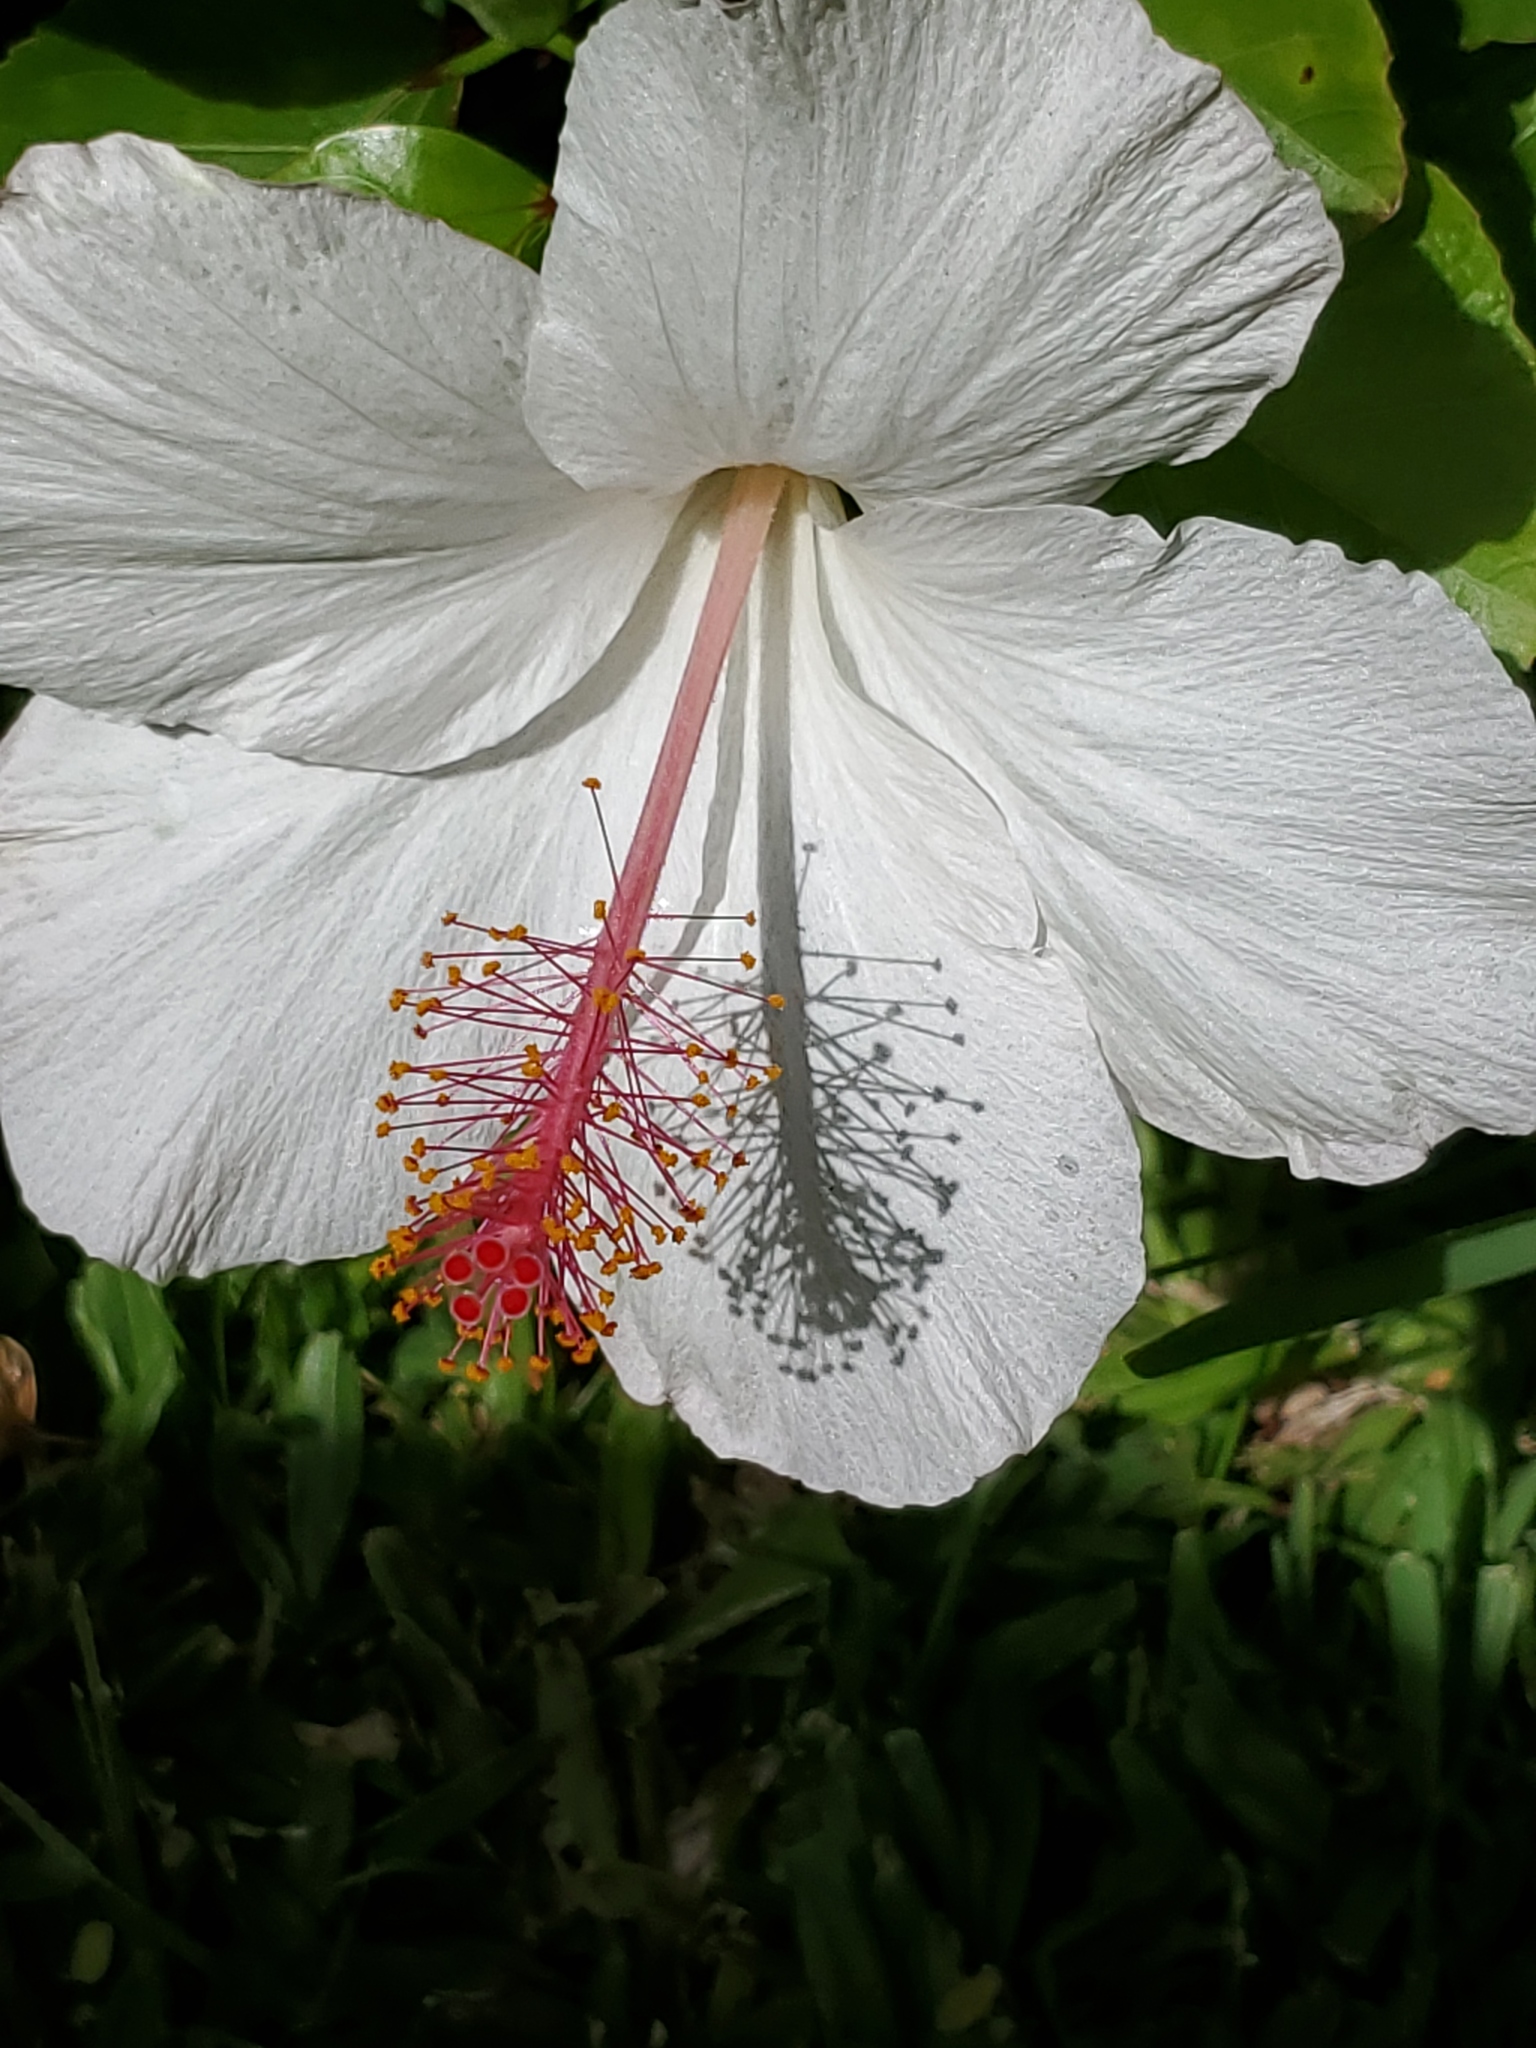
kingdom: Plantae
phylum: Tracheophyta
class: Magnoliopsida
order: Malvales
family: Malvaceae
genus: Hibiscus
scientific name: Hibiscus arnottianus
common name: White molokai hibiscus
